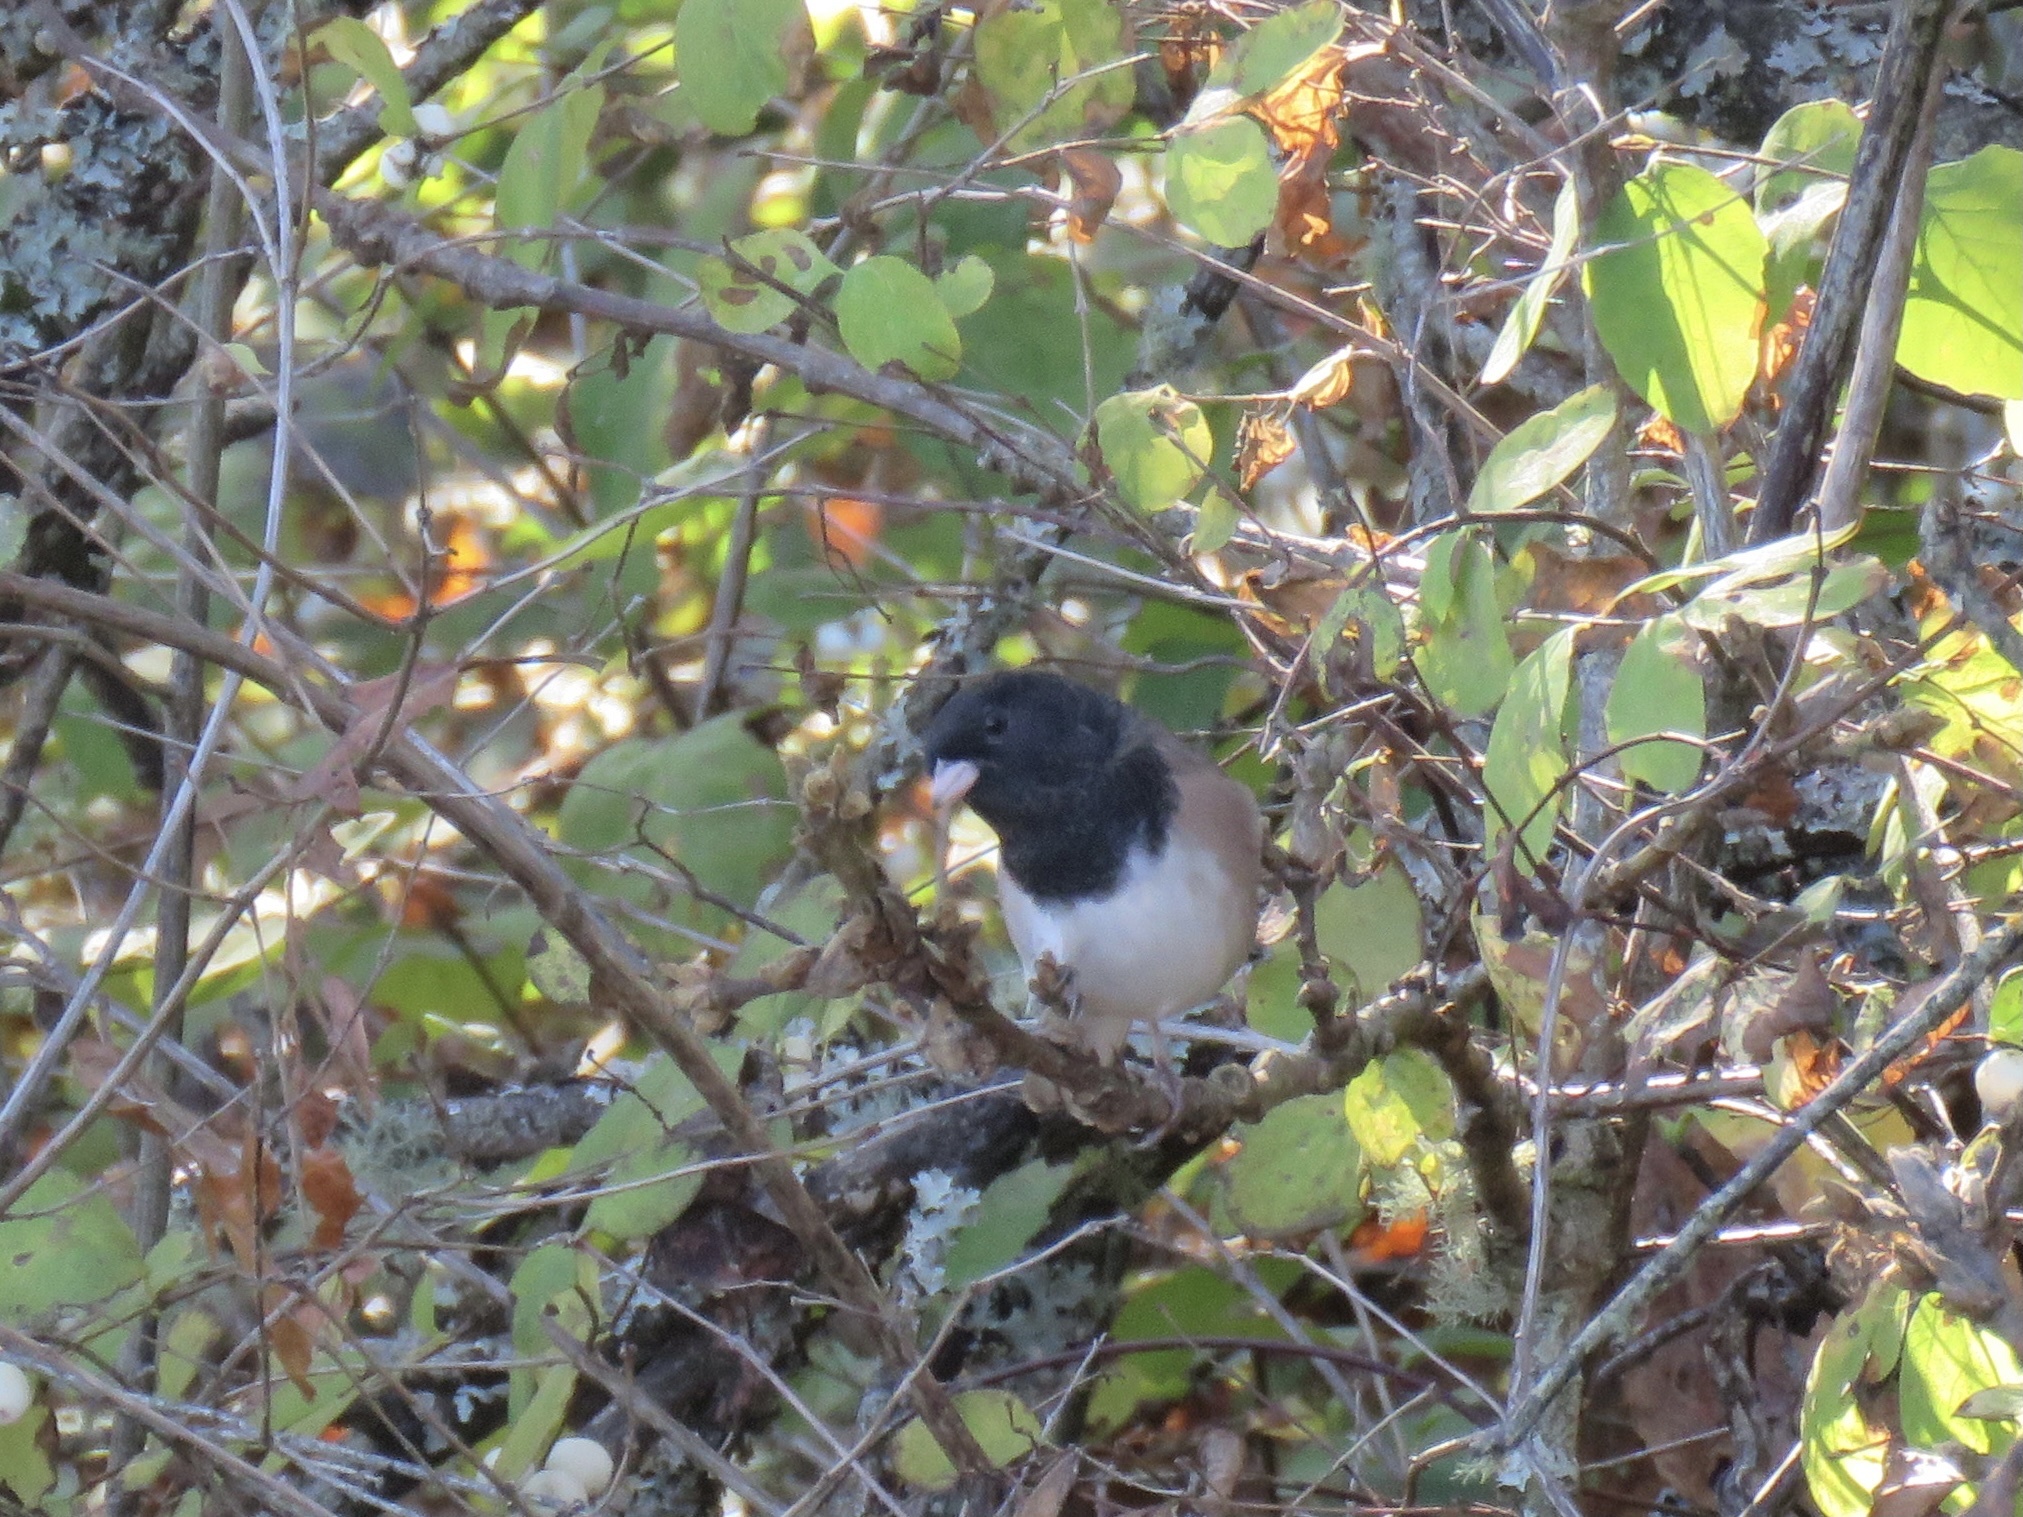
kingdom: Animalia
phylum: Chordata
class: Aves
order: Passeriformes
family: Passerellidae
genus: Junco
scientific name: Junco hyemalis
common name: Dark-eyed junco
